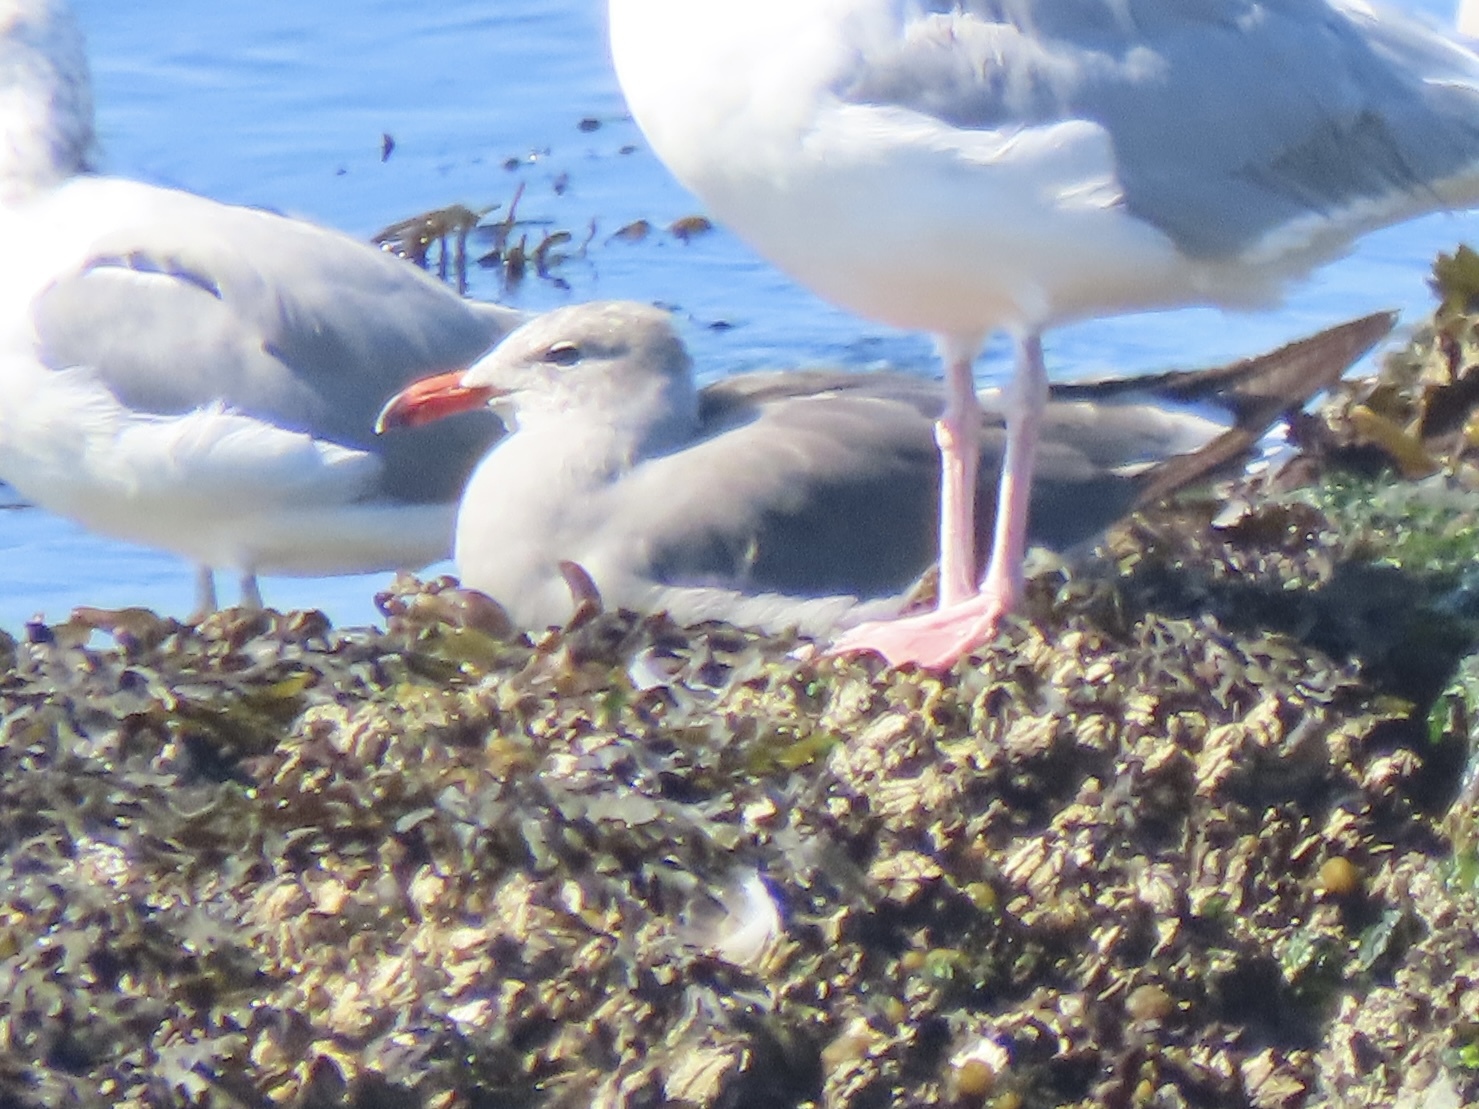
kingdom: Animalia
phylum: Chordata
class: Aves
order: Charadriiformes
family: Laridae
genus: Larus
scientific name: Larus heermanni
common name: Heermann's gull
